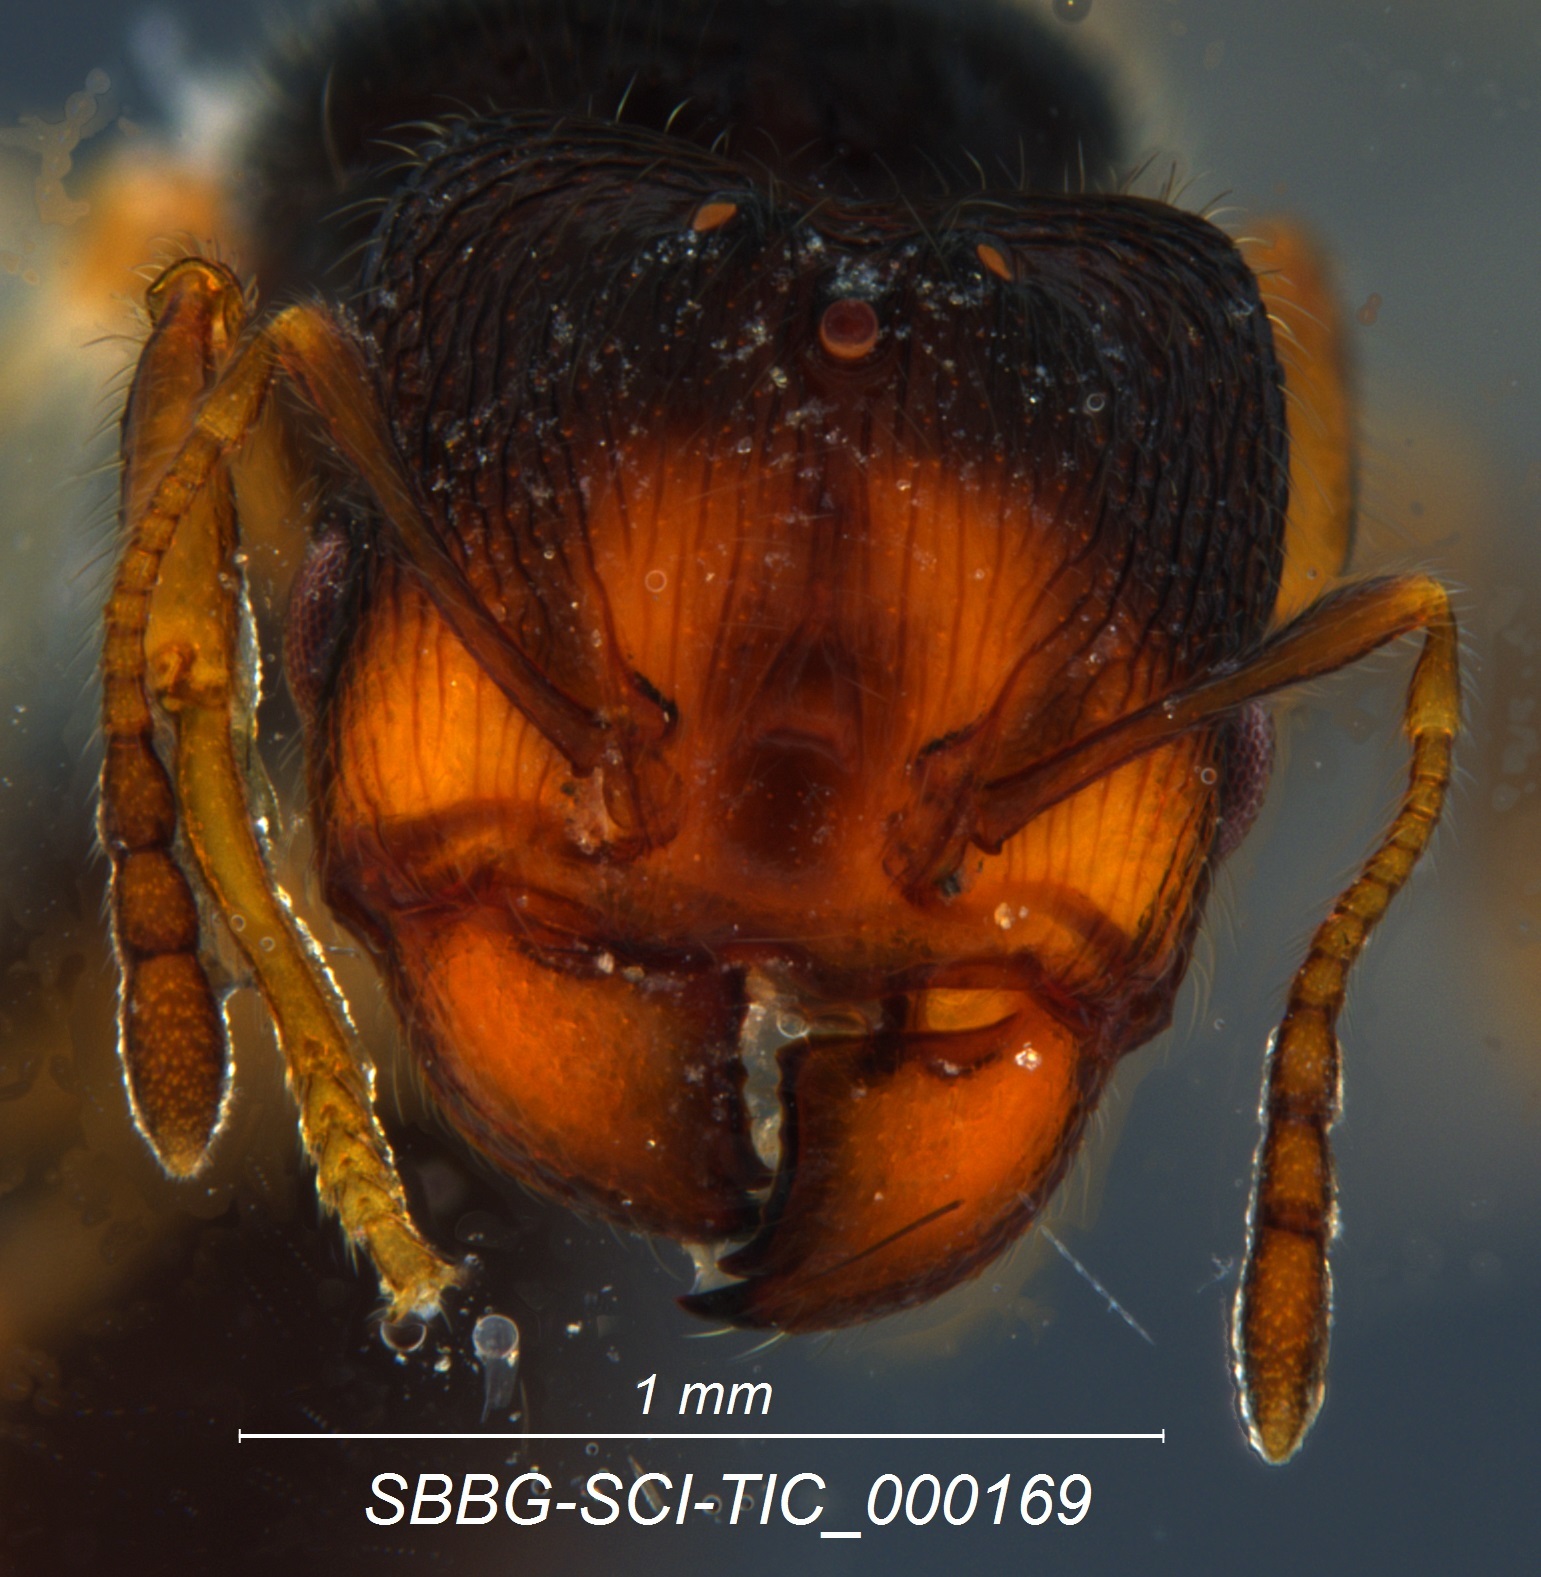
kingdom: Animalia
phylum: Arthropoda
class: Insecta
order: Hymenoptera
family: Formicidae
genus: Pheidole
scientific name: Pheidole clementensis
